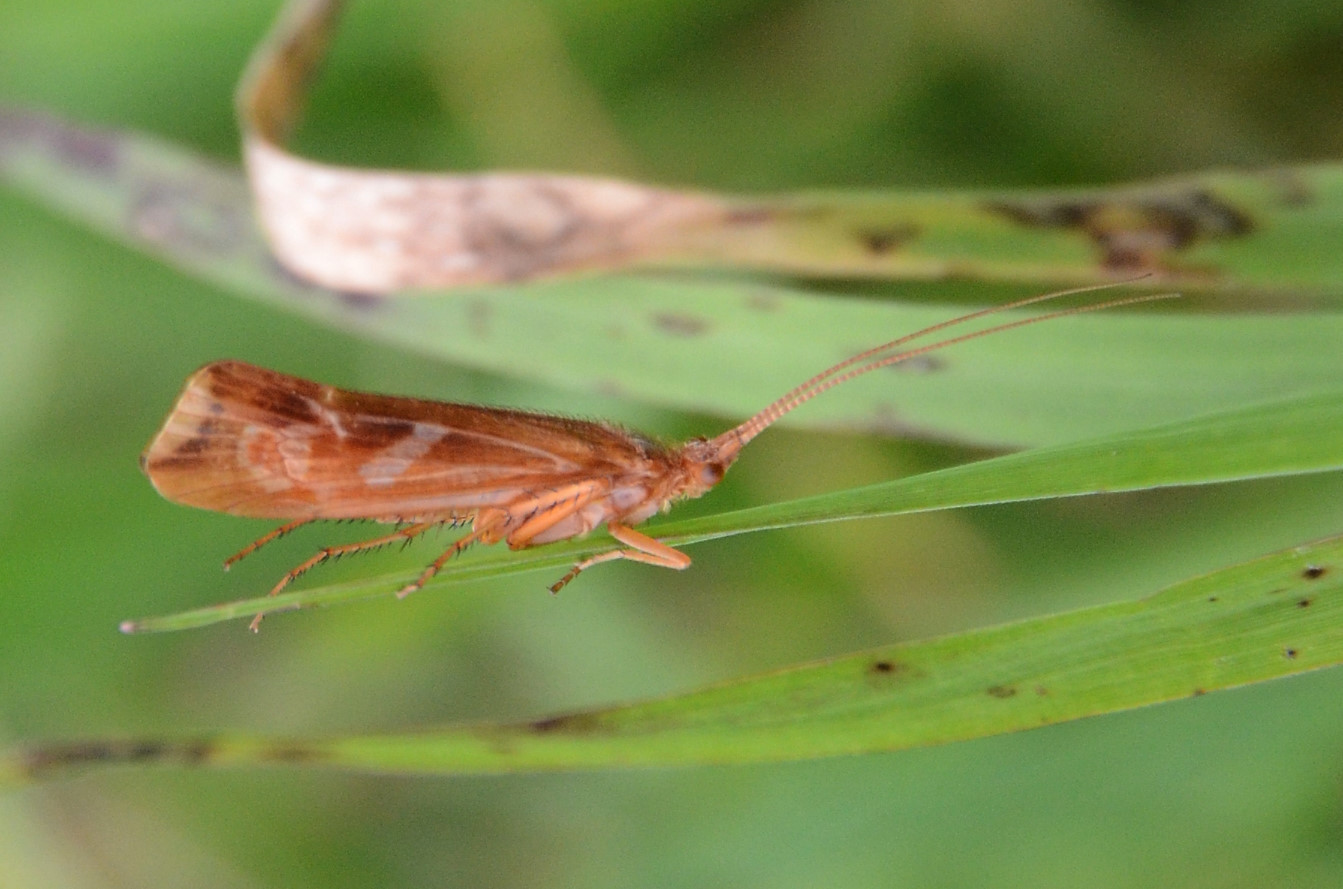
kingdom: Animalia
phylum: Arthropoda
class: Insecta
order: Trichoptera
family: Limnephilidae
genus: Limnephilus
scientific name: Limnephilus lunatus
